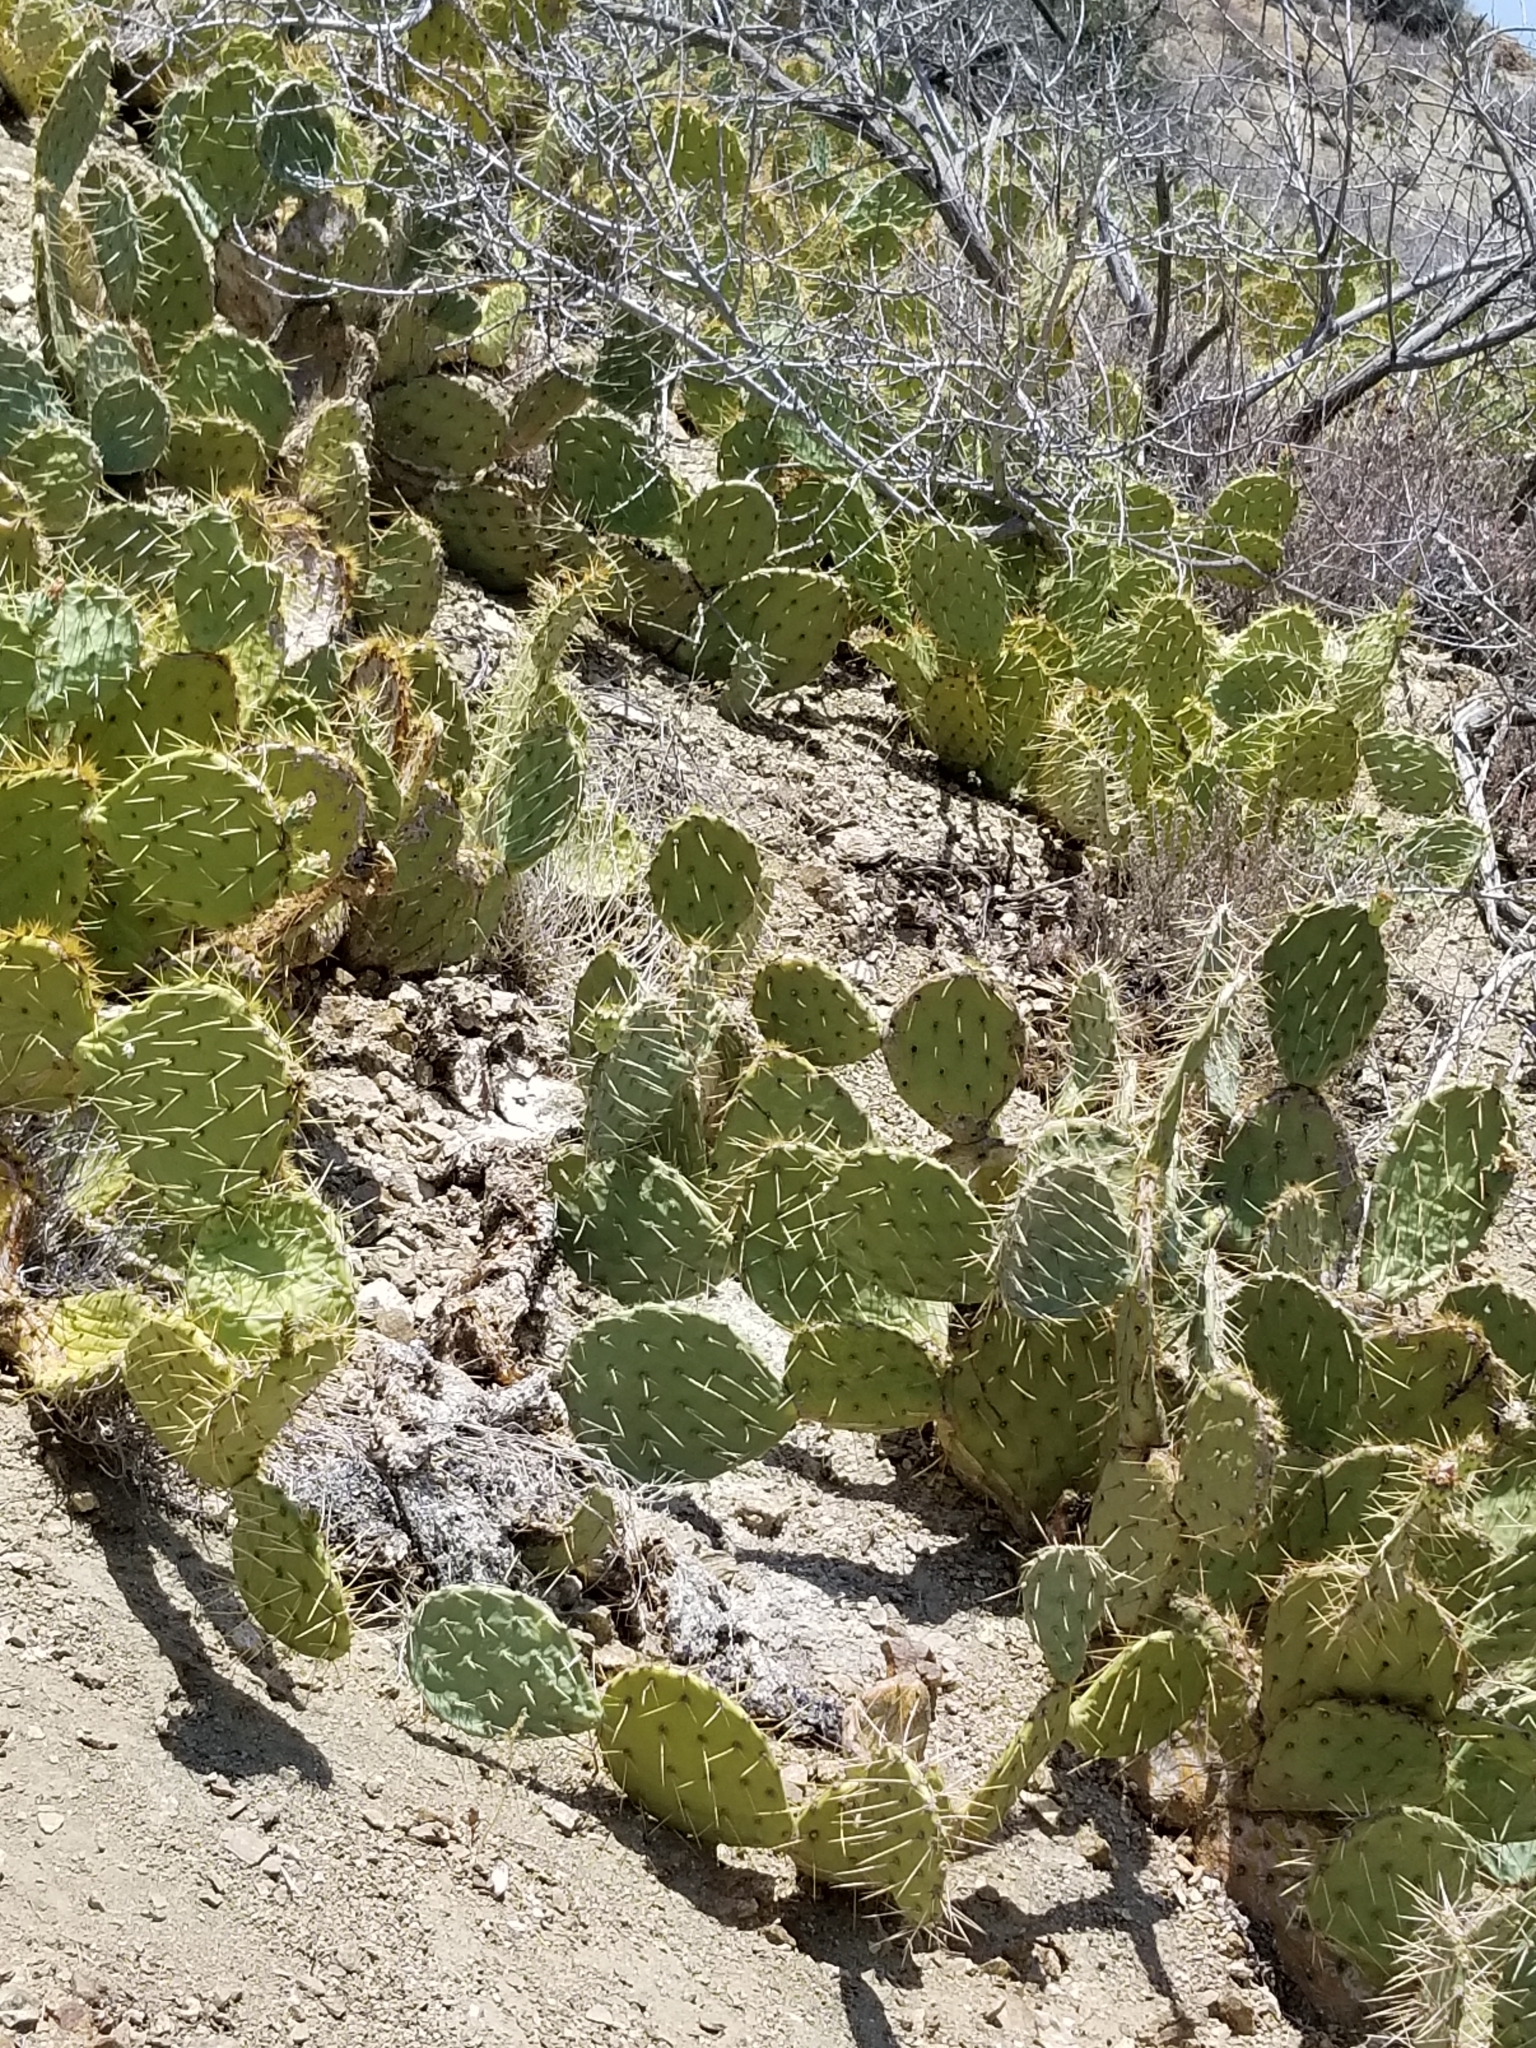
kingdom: Plantae
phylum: Tracheophyta
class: Magnoliopsida
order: Caryophyllales
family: Cactaceae
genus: Opuntia
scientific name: Opuntia phaeacantha
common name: New mexico prickly-pear
